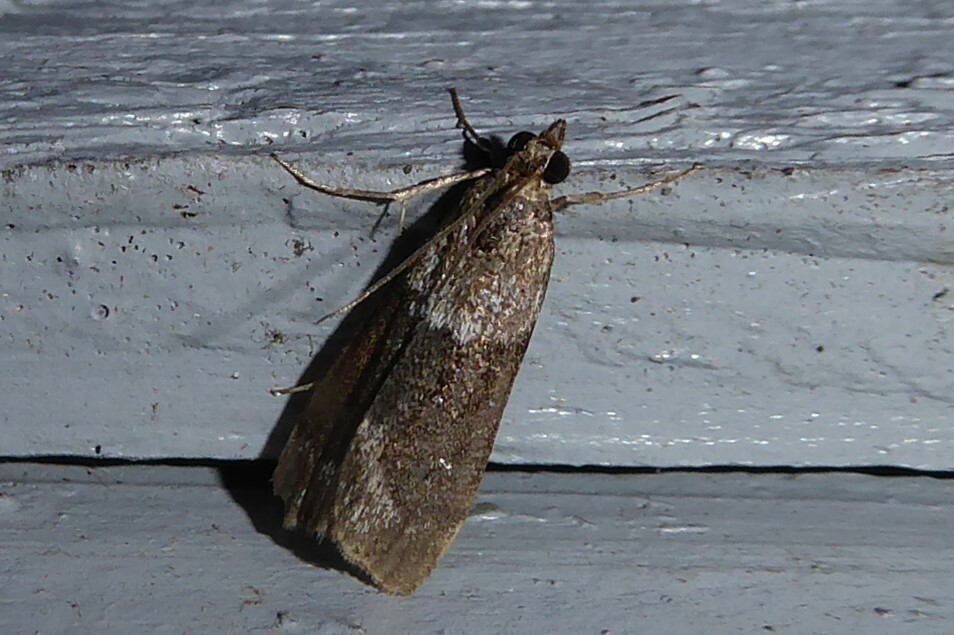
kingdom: Animalia
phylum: Arthropoda
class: Insecta
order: Lepidoptera
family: Crambidae
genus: Eudonia
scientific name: Eudonia submarginalis
